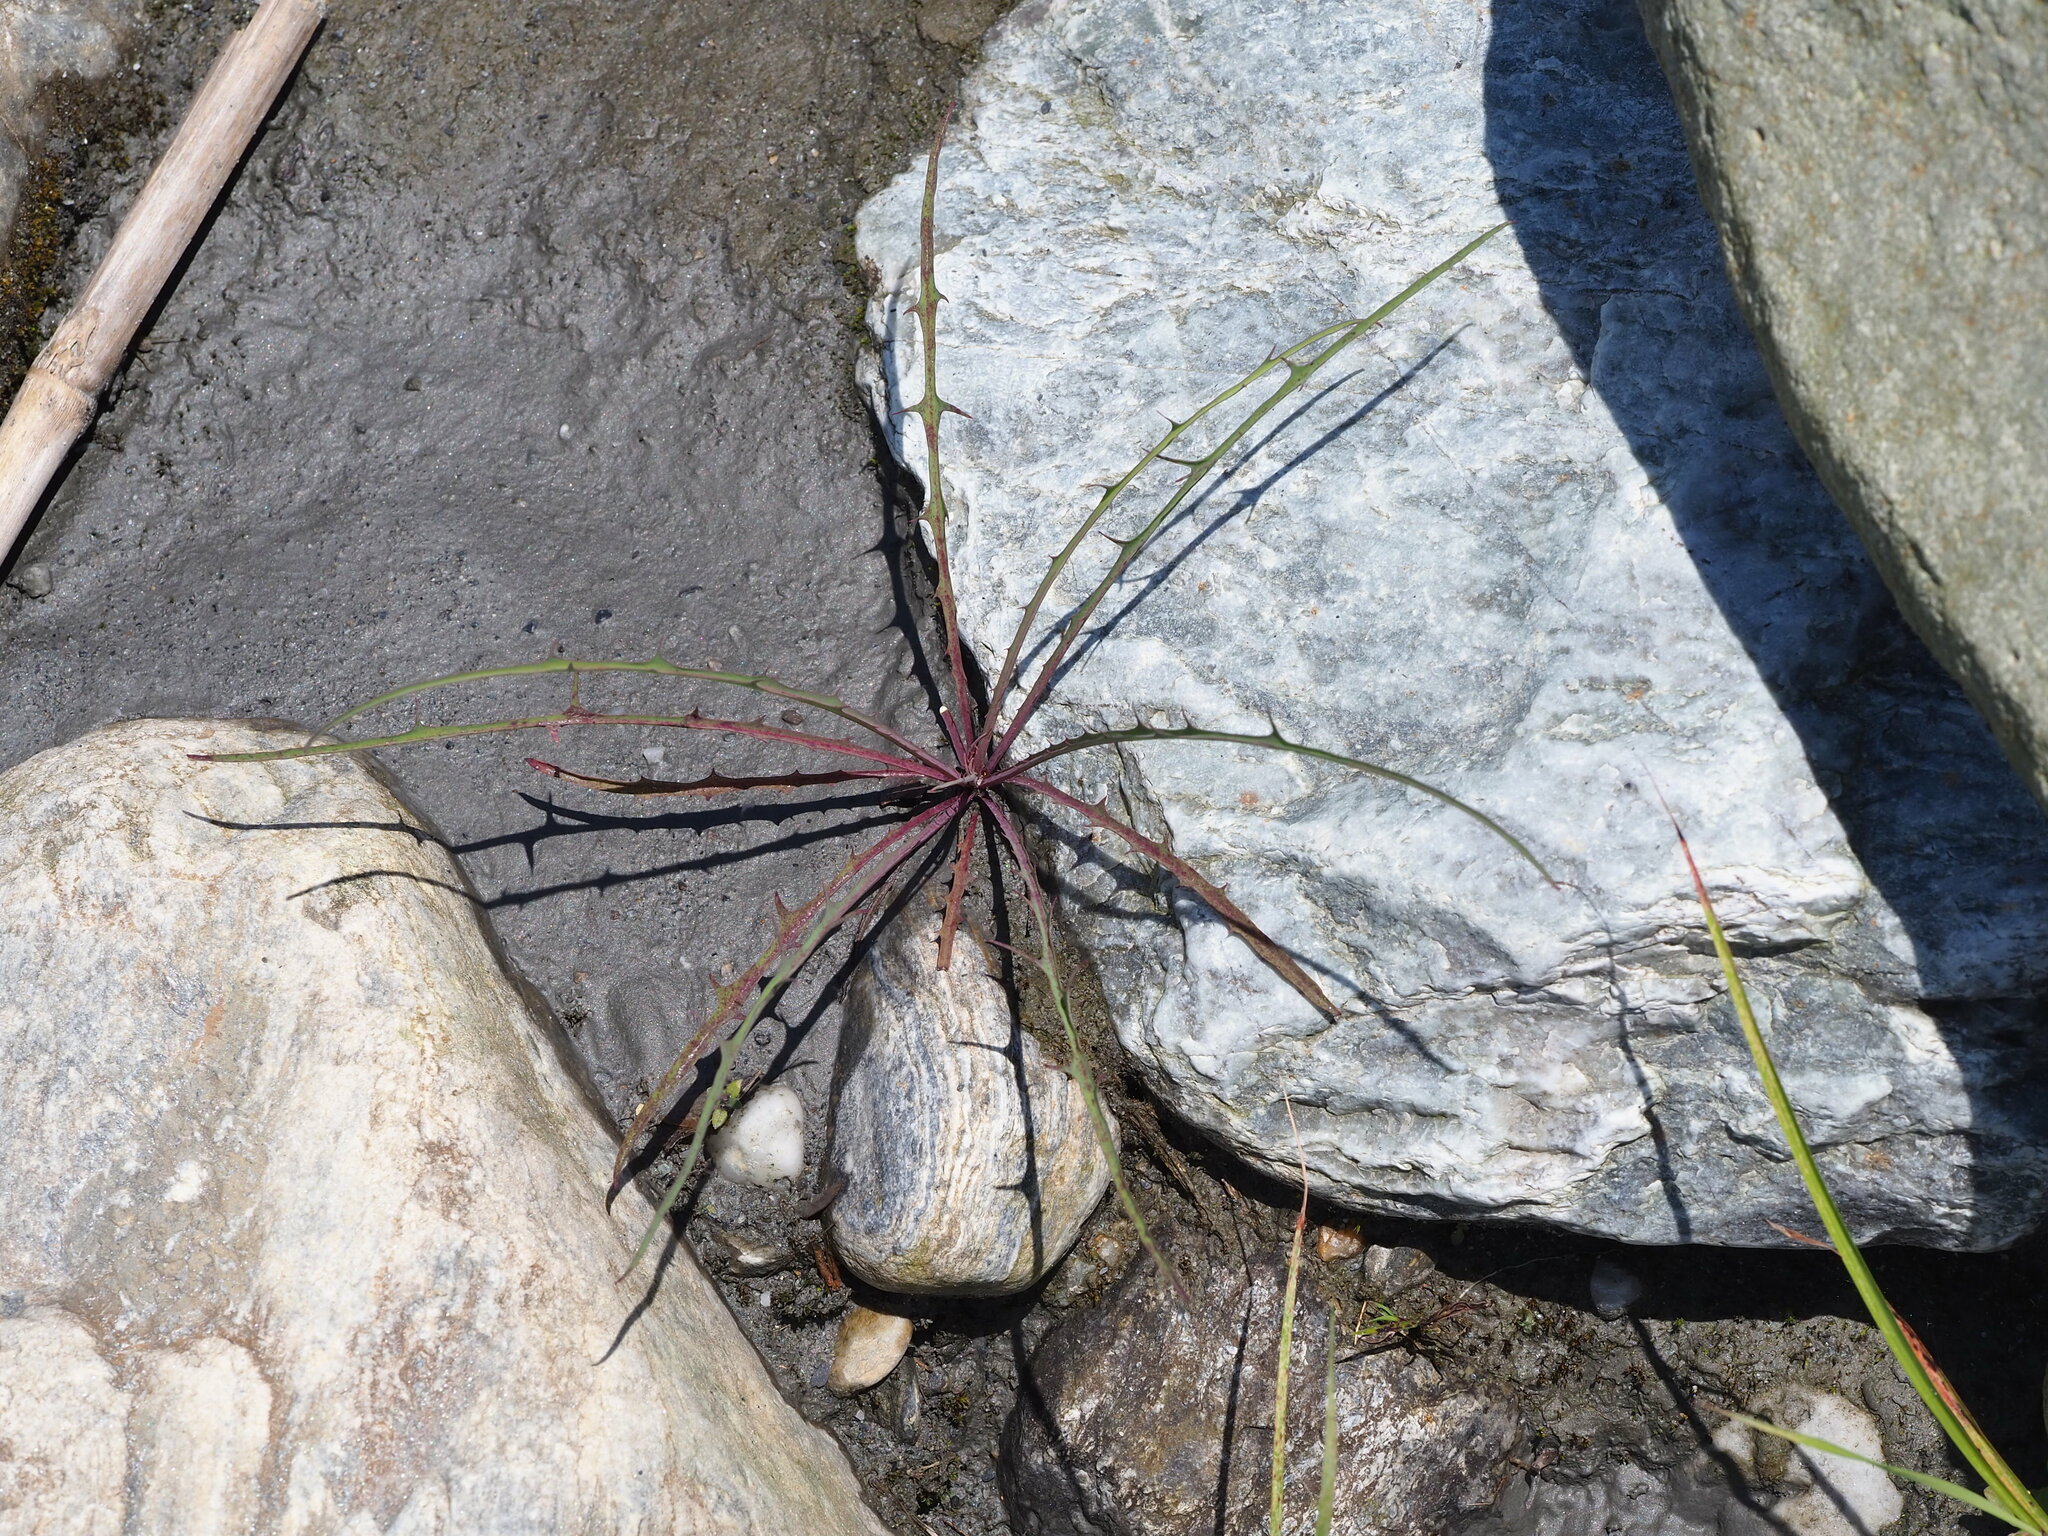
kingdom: Plantae
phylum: Tracheophyta
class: Magnoliopsida
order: Asterales
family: Asteraceae
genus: Ixeris
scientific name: Ixeris tamagawaensis
